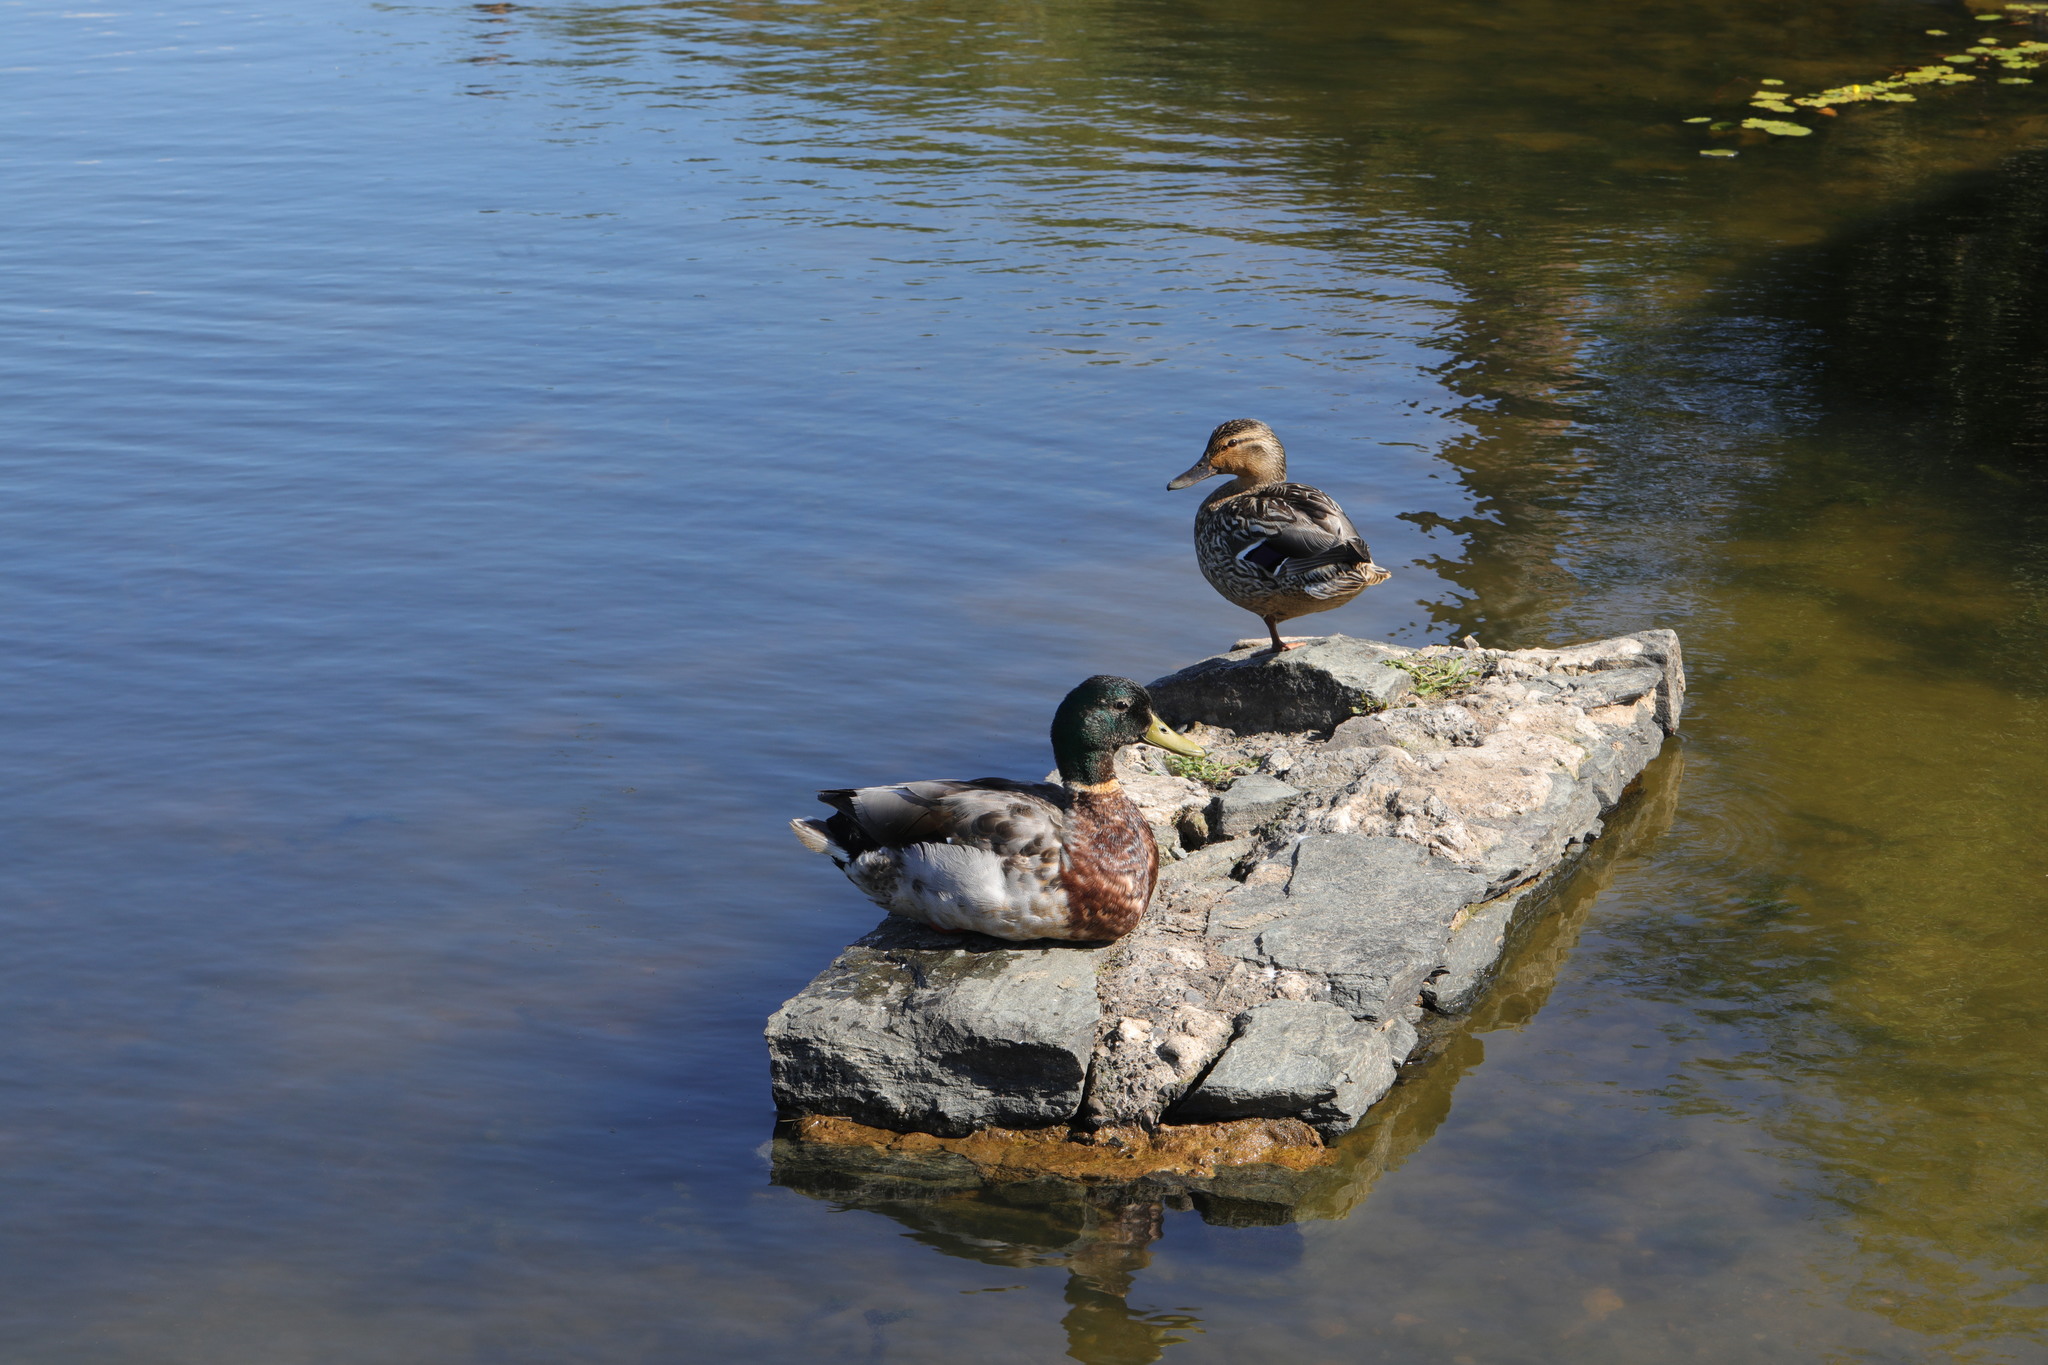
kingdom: Animalia
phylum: Chordata
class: Aves
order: Anseriformes
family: Anatidae
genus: Anas
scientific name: Anas platyrhynchos
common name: Mallard
